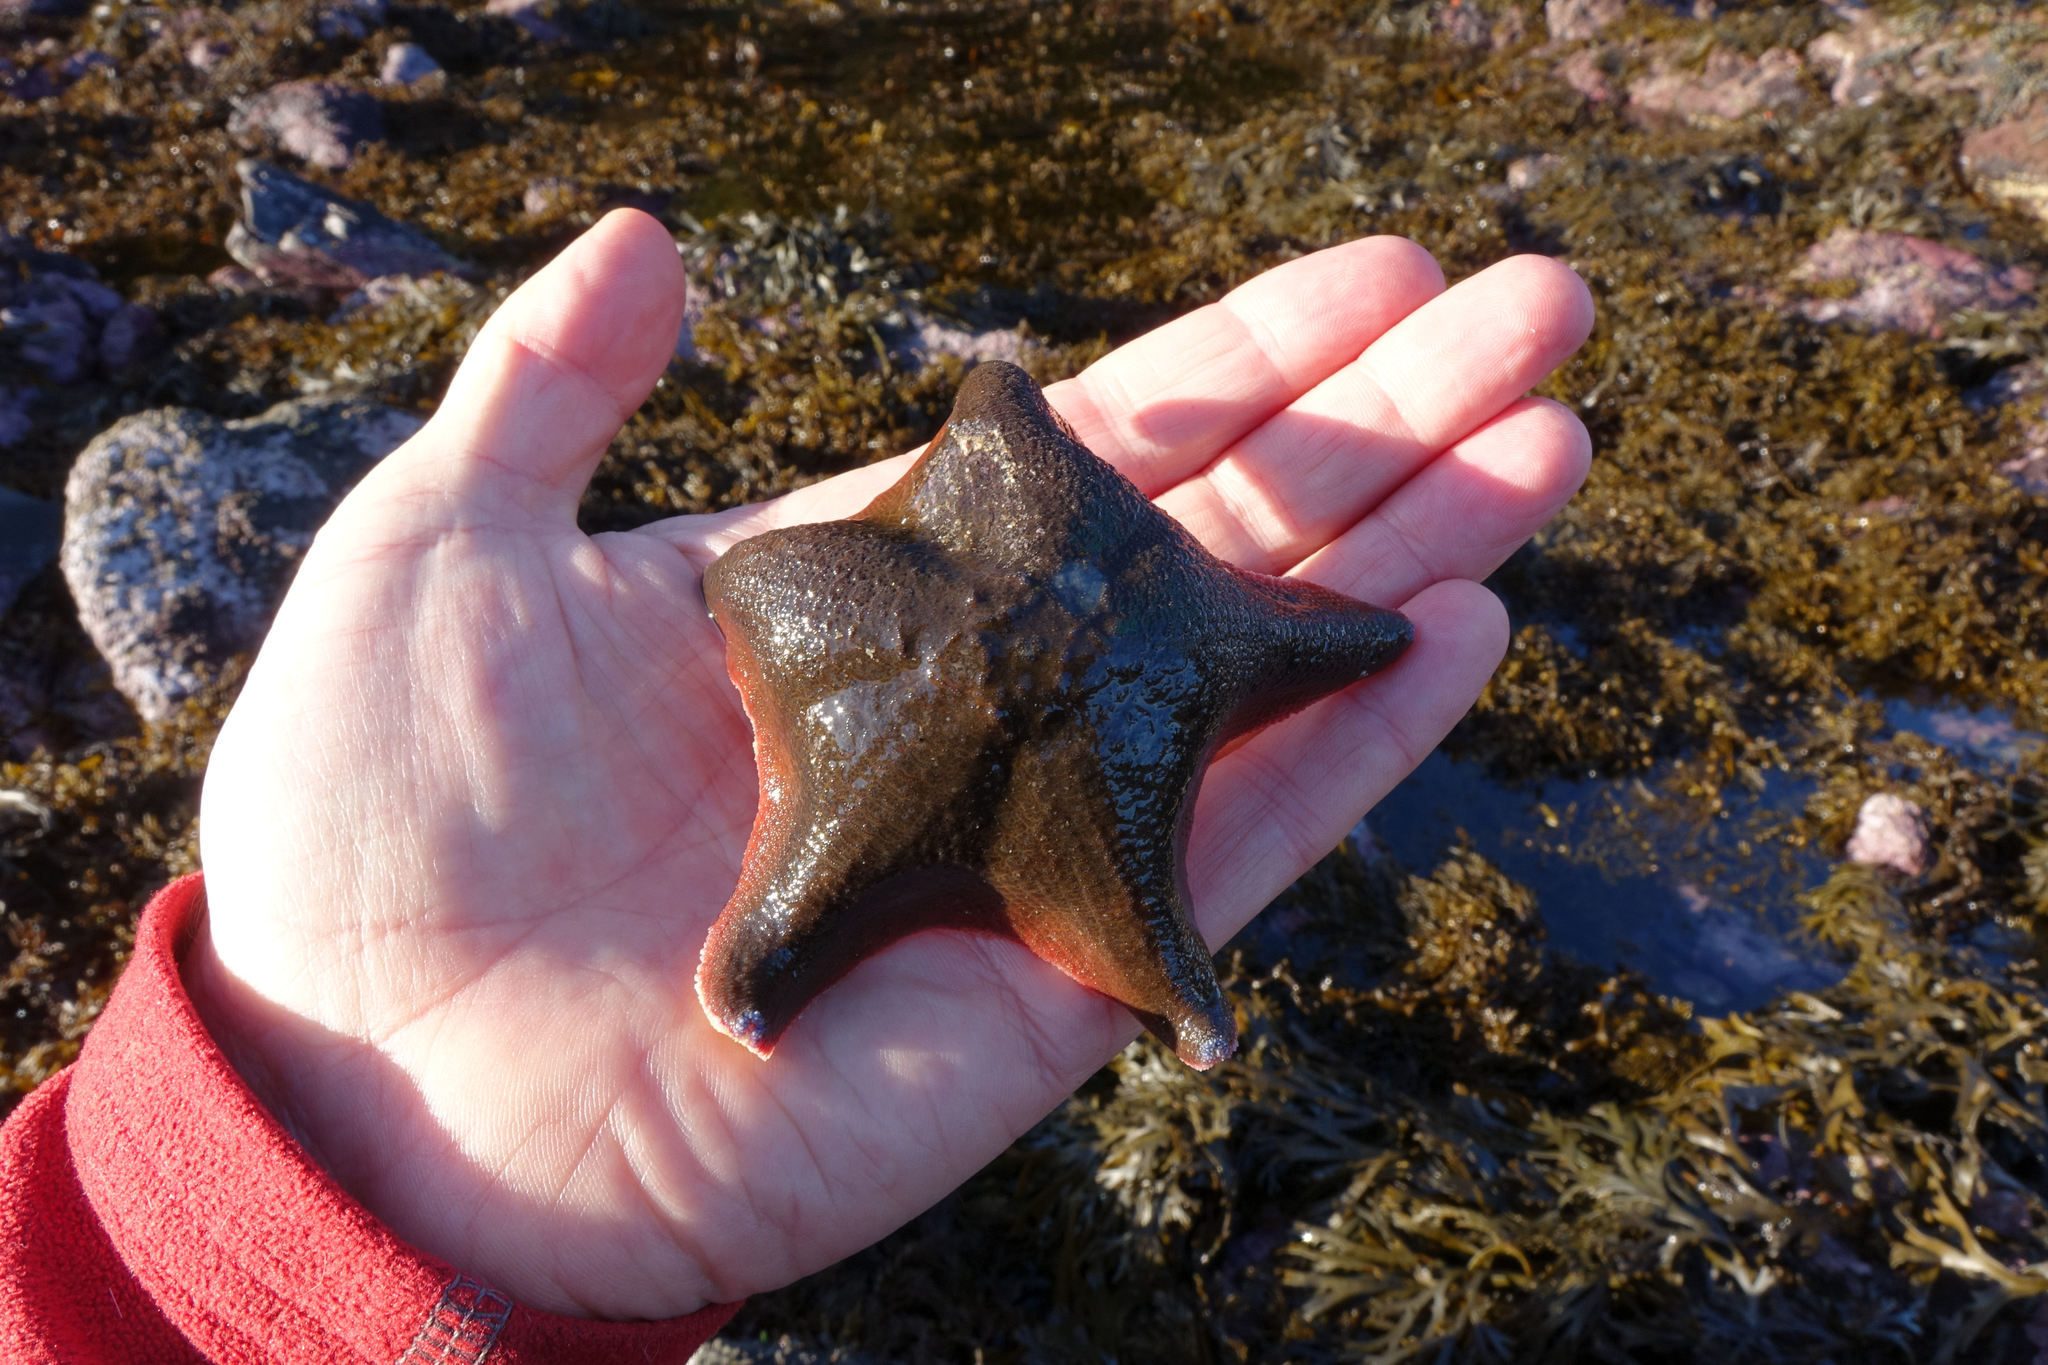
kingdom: Animalia
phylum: Echinodermata
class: Asteroidea
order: Valvatida
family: Asterinidae
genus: Patiriella
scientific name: Patiriella regularis
